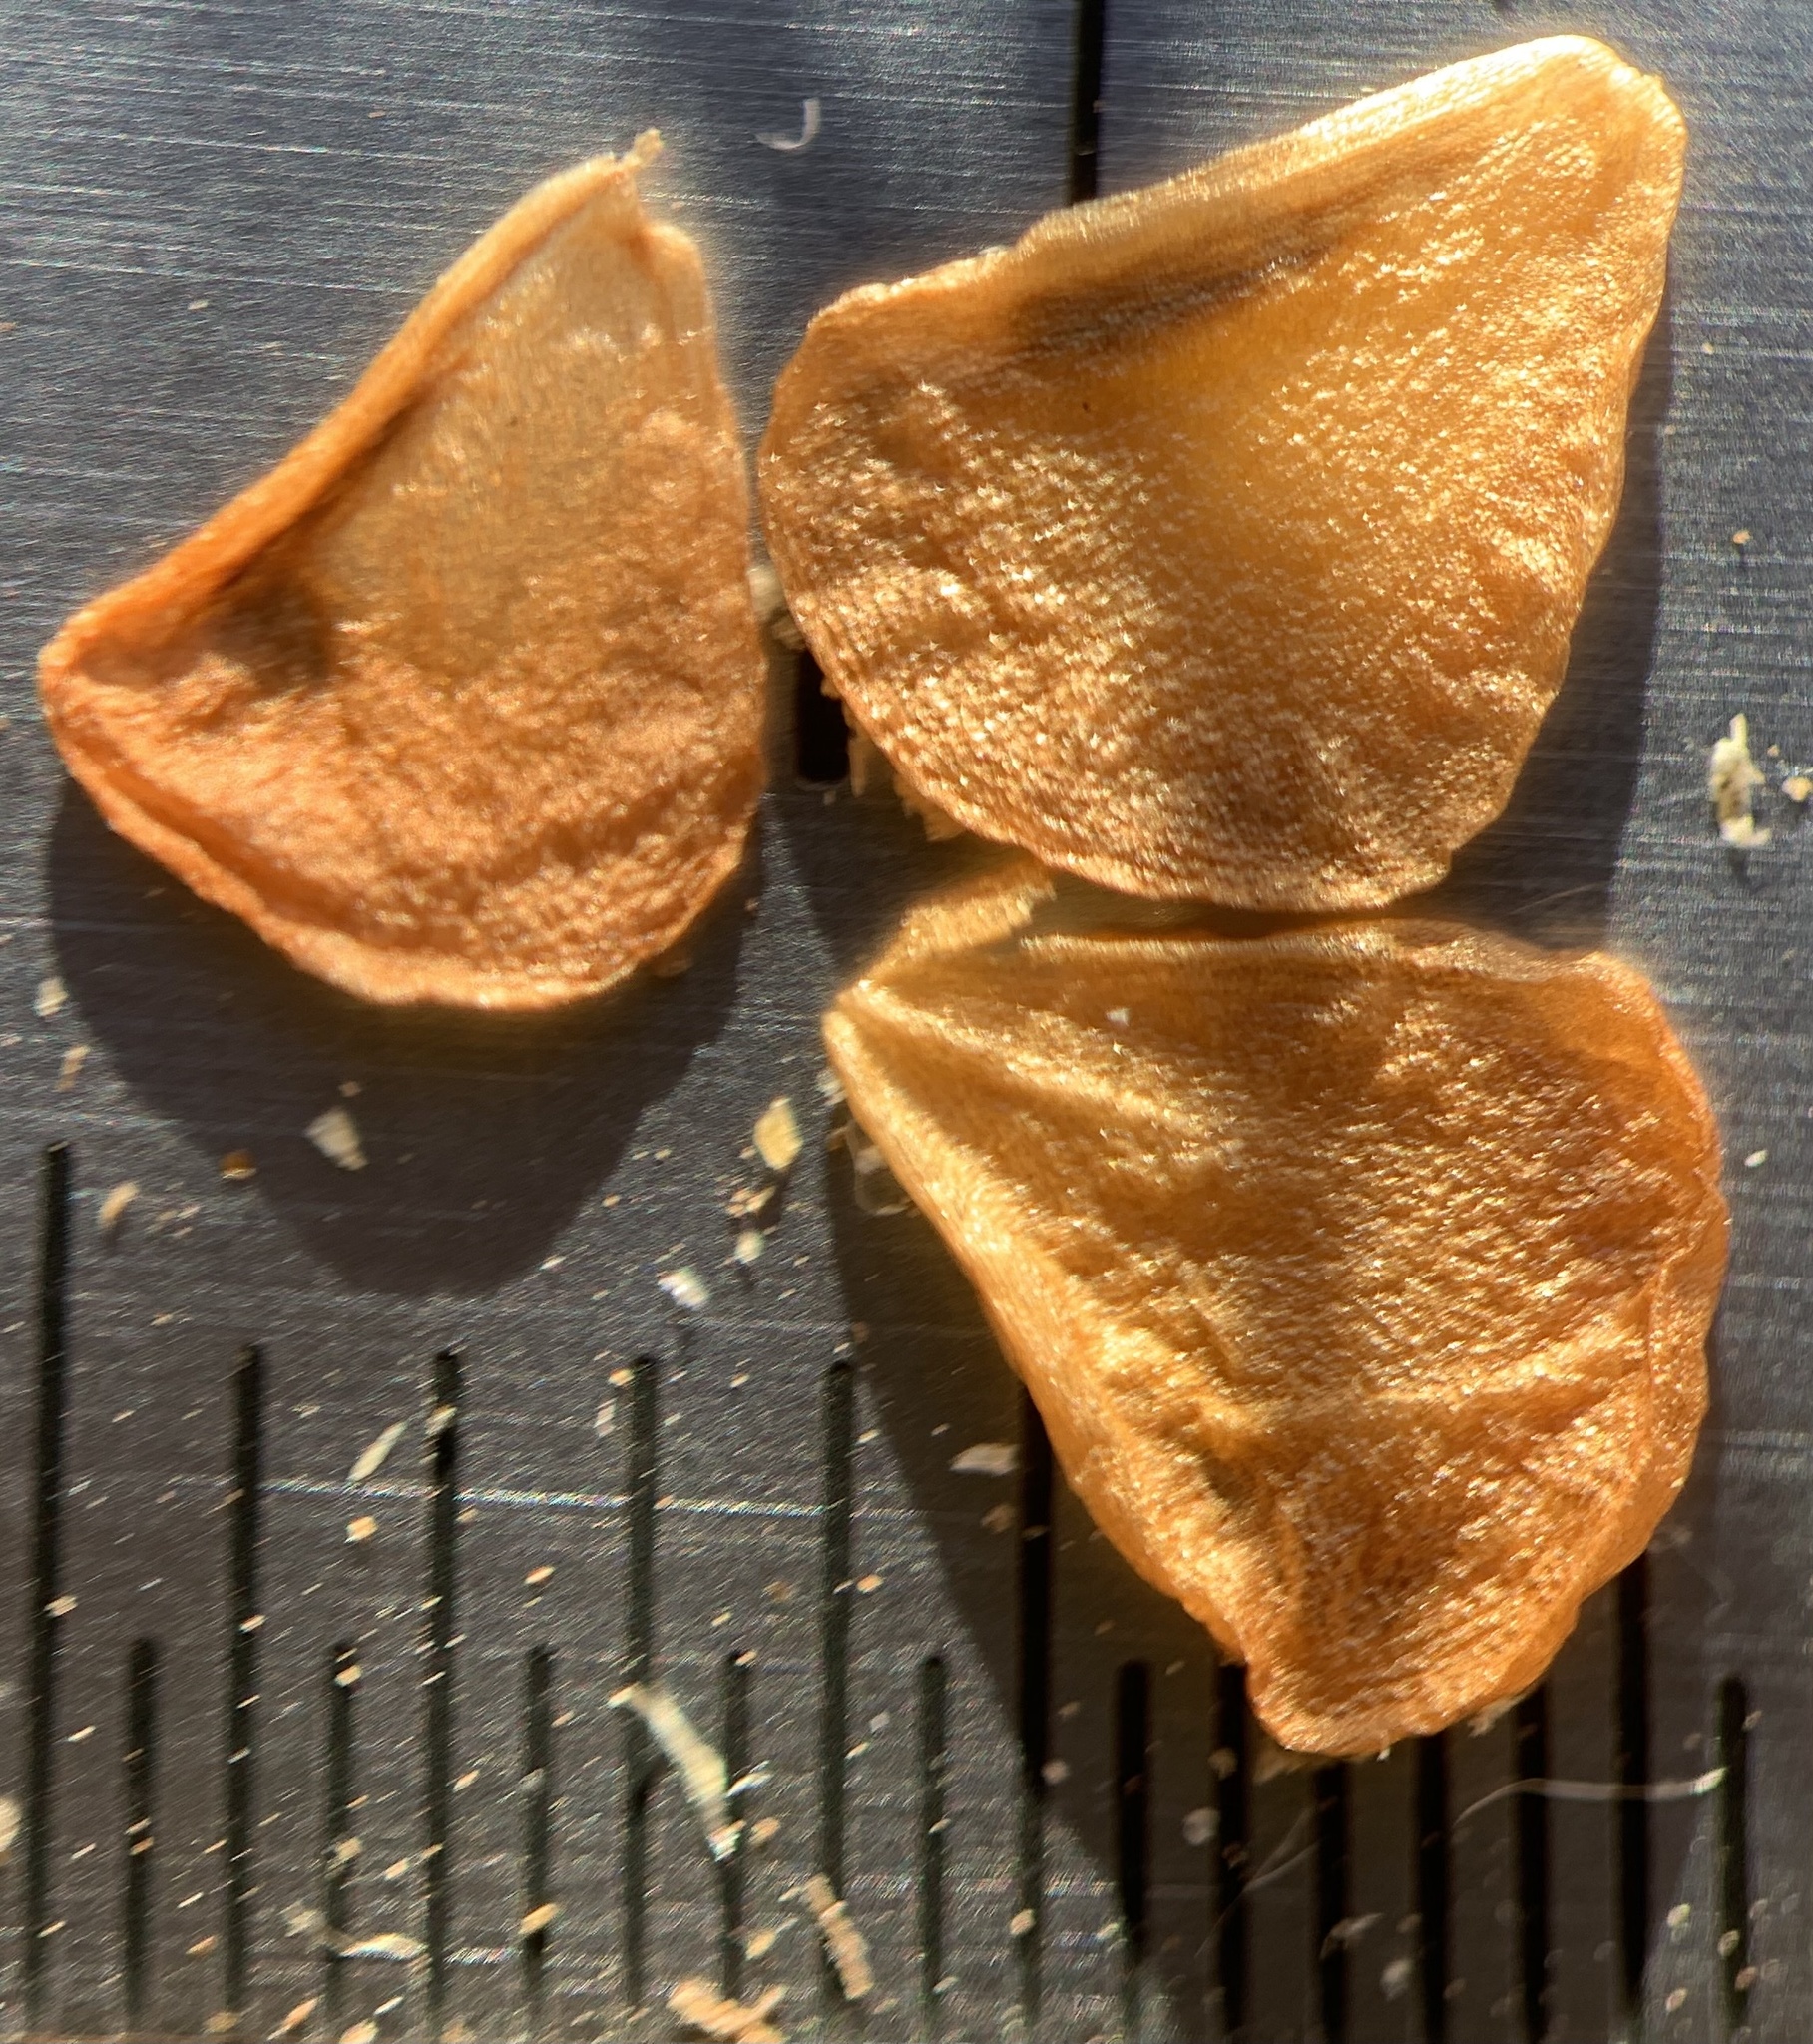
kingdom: Plantae
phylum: Tracheophyta
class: Liliopsida
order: Liliales
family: Liliaceae
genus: Fritillaria
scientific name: Fritillaria atropurpurea
